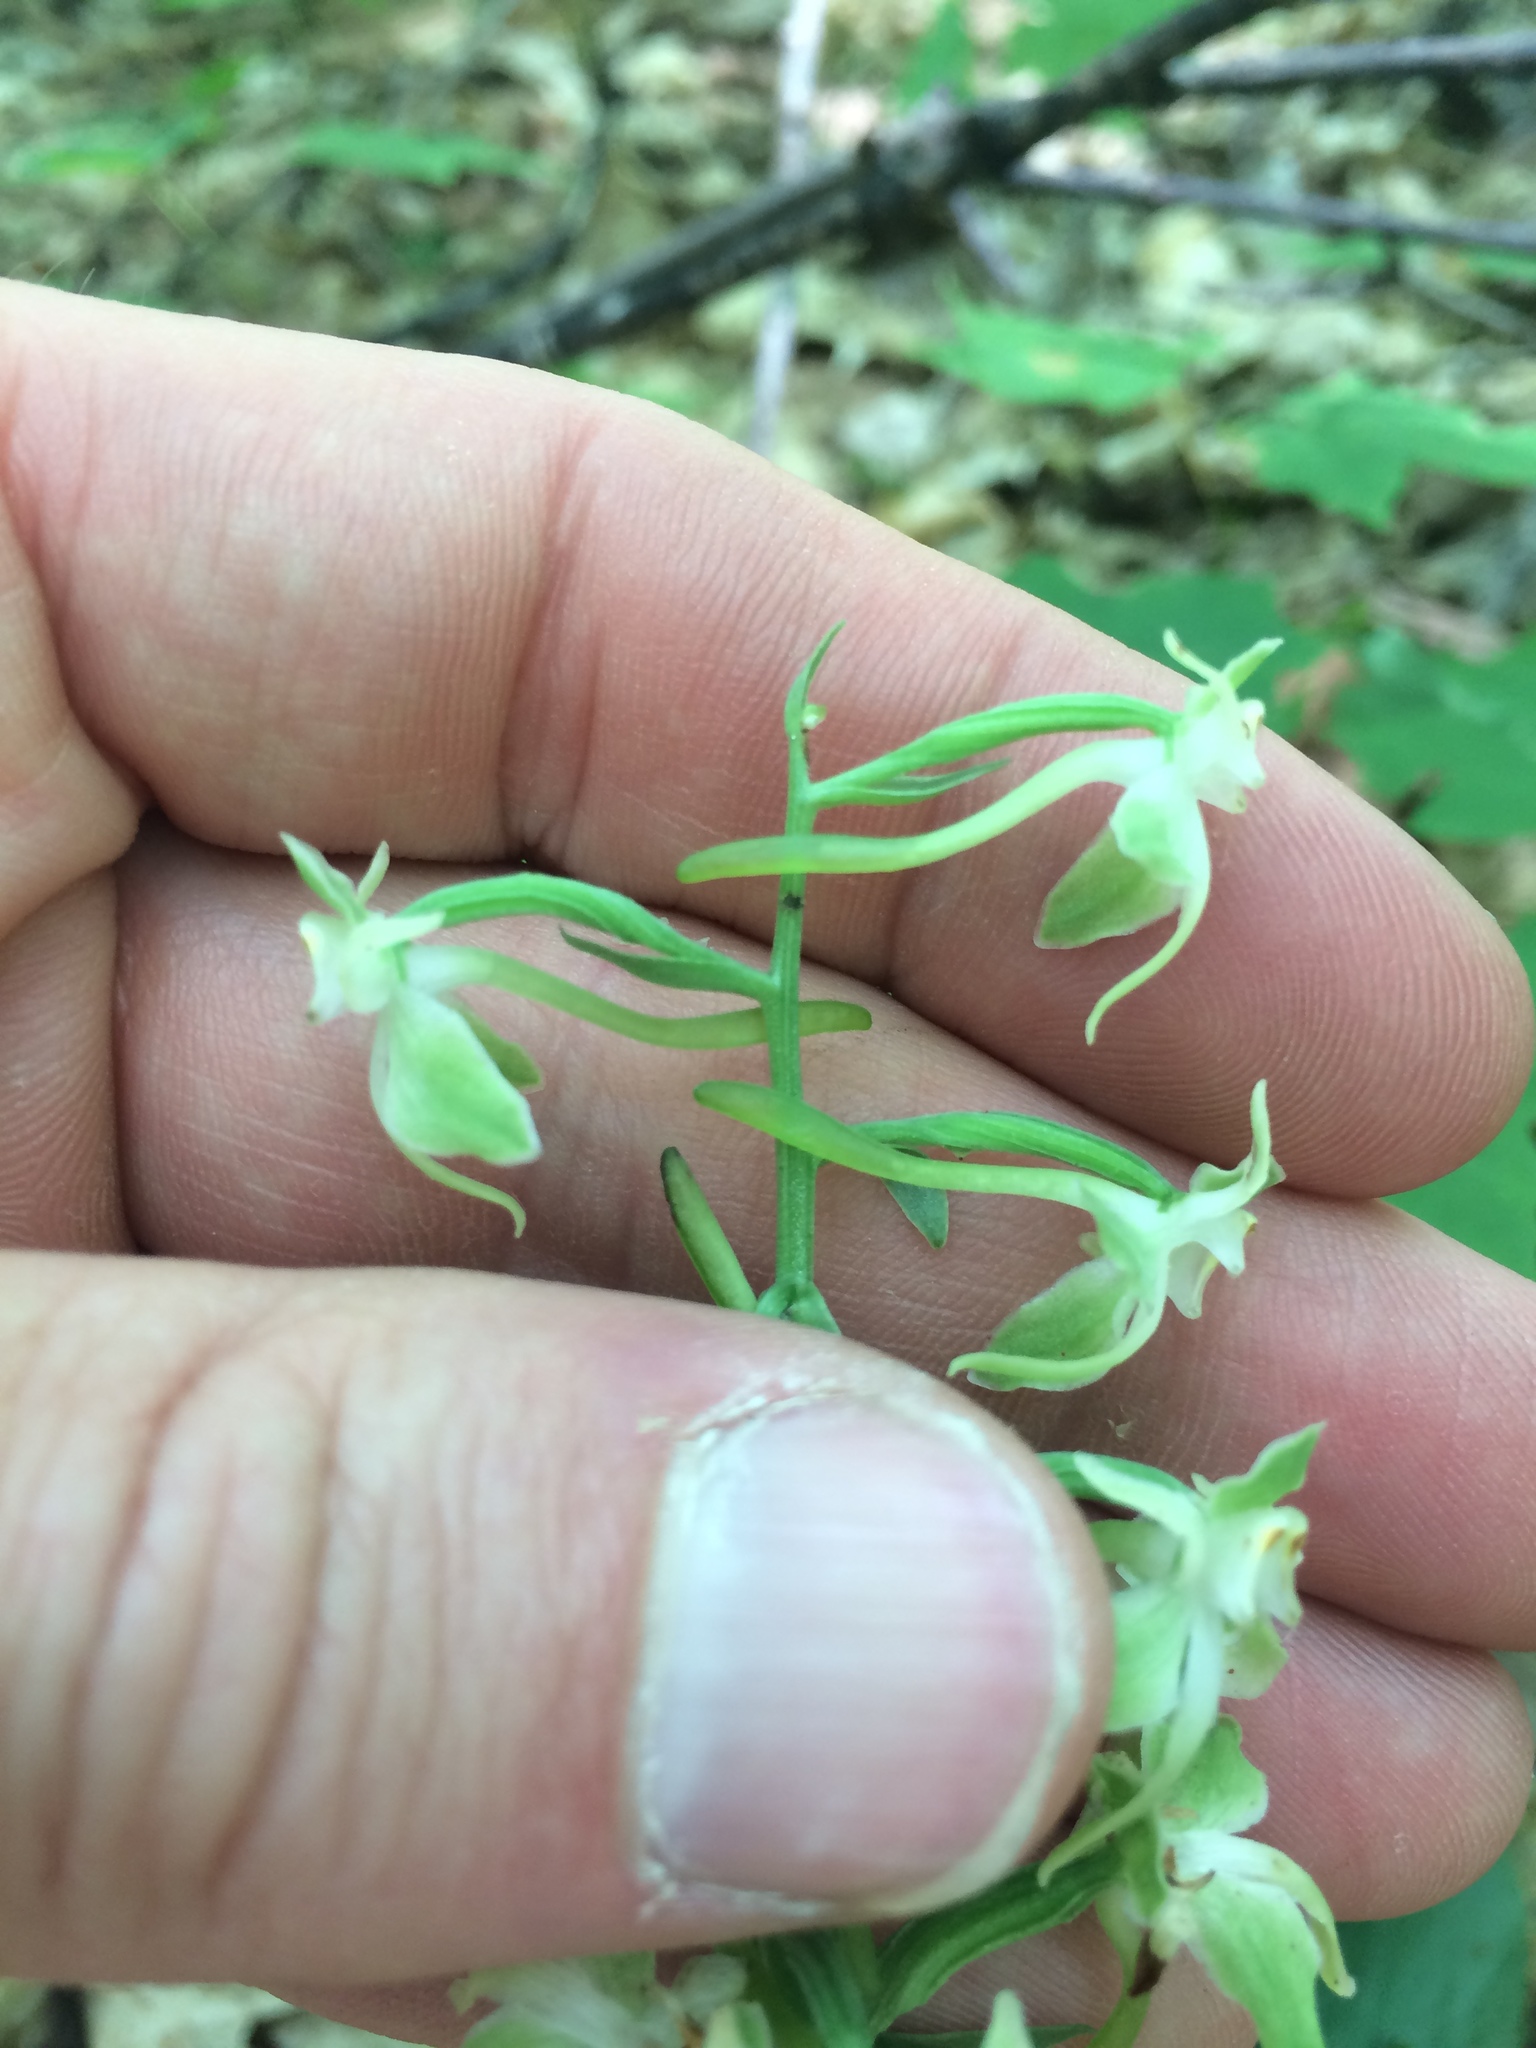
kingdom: Plantae
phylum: Tracheophyta
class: Liliopsida
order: Asparagales
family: Orchidaceae
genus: Platanthera
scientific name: Platanthera orbiculata
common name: Large round-leaved orchid
